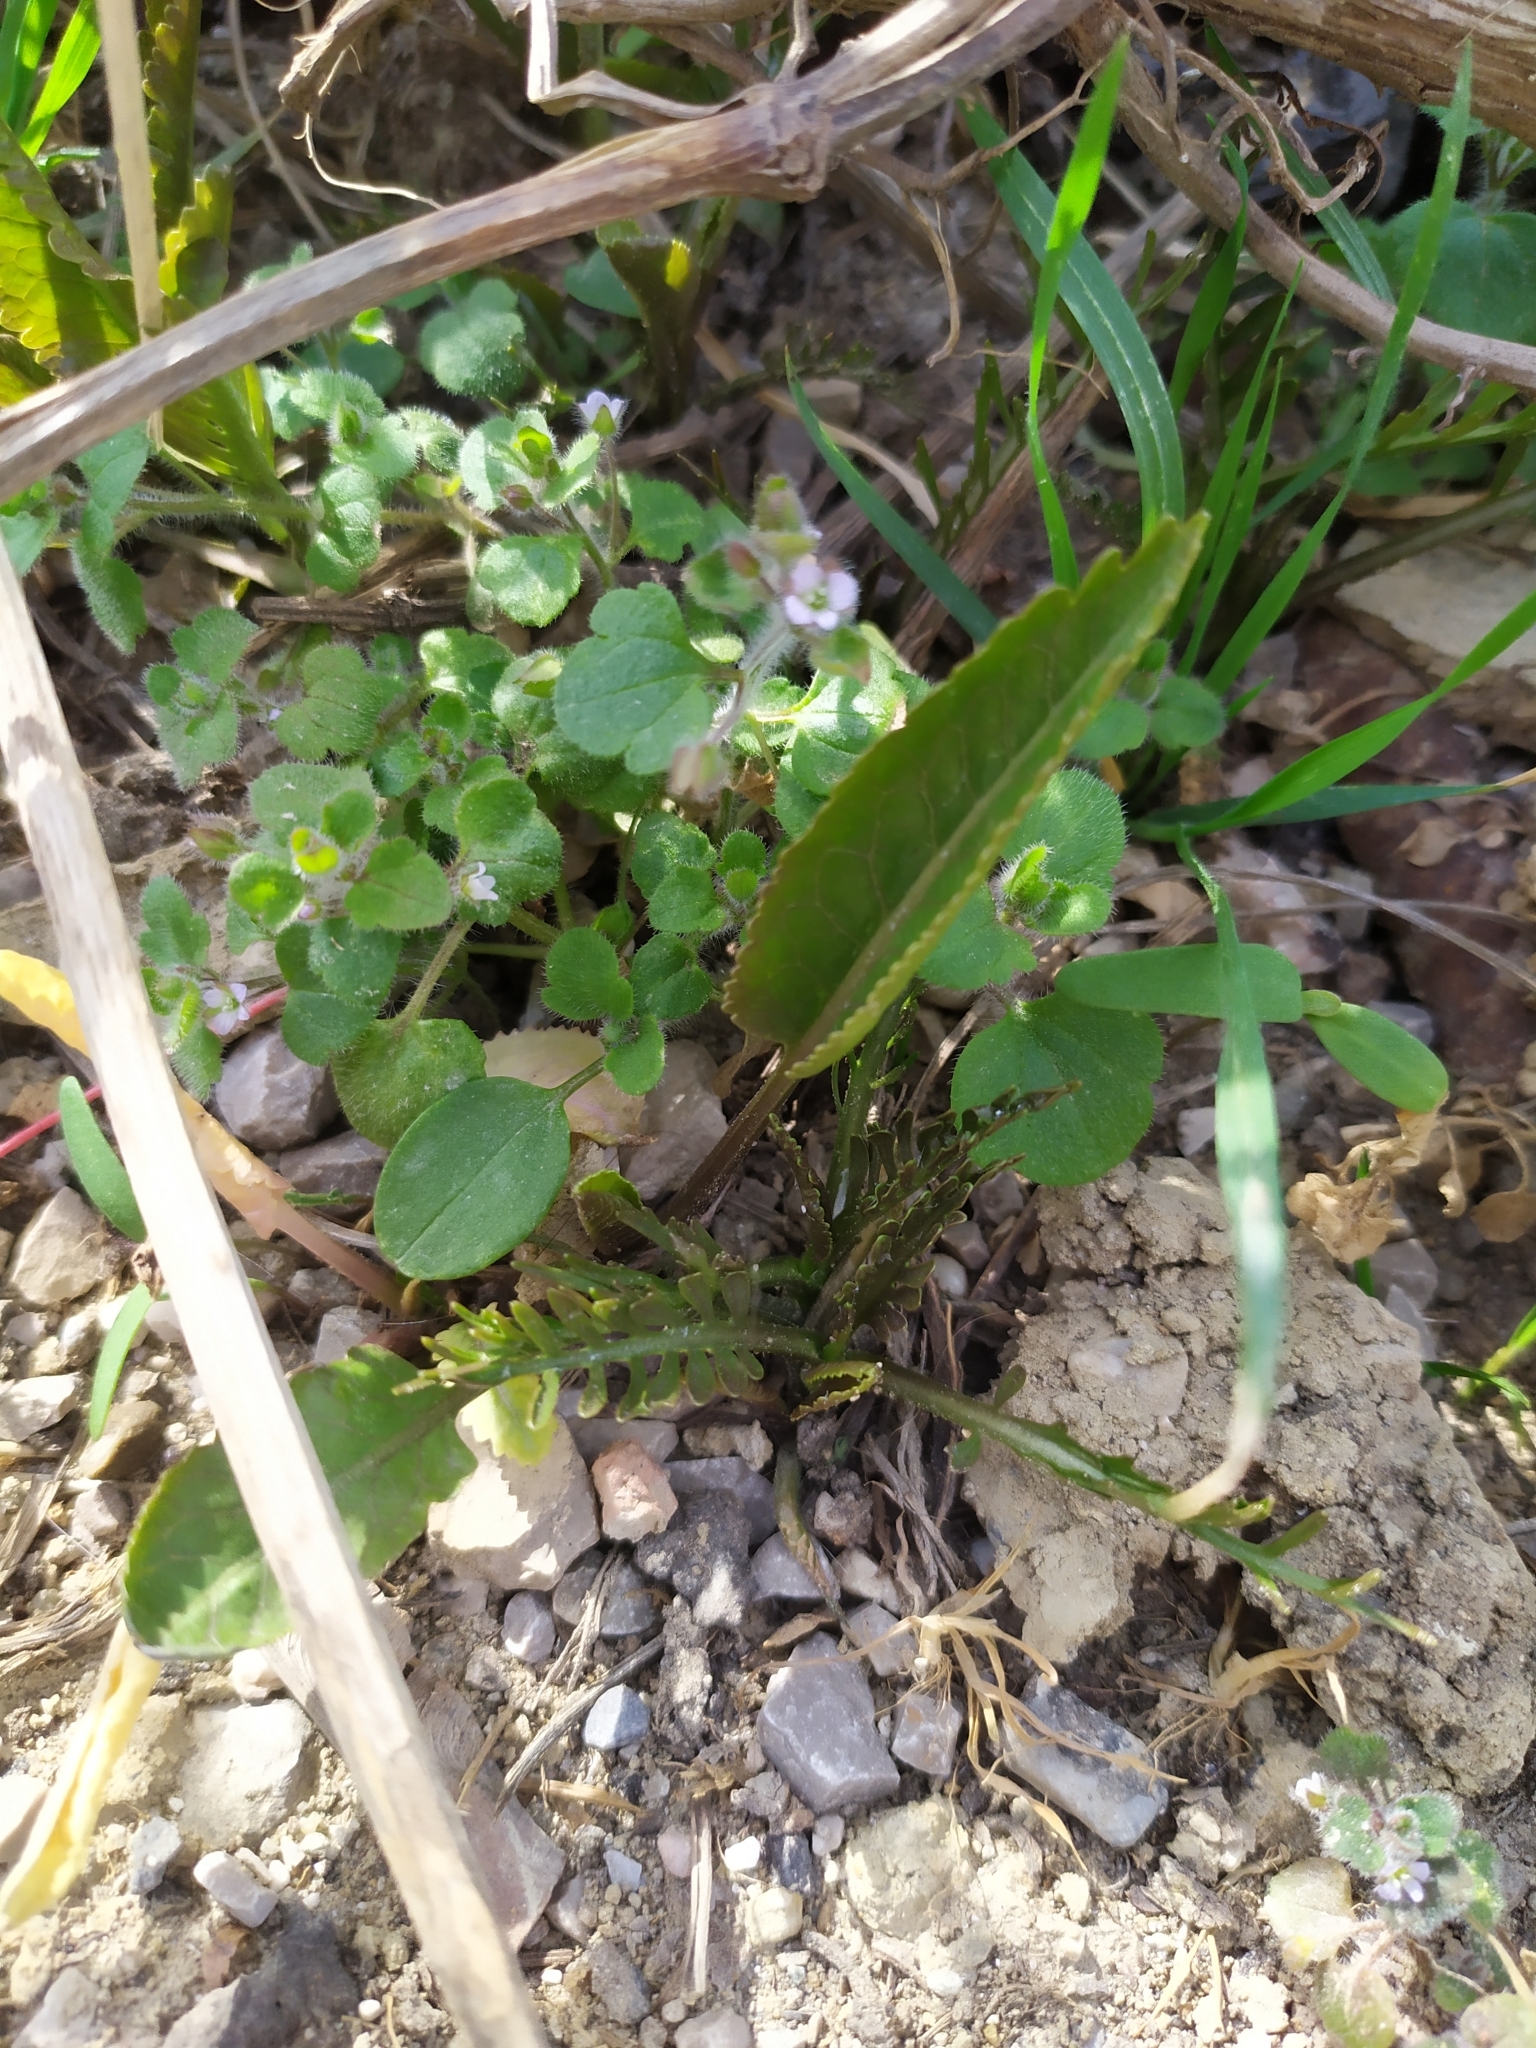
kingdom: Plantae
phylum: Tracheophyta
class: Magnoliopsida
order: Brassicales
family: Brassicaceae
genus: Armoracia
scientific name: Armoracia rusticana
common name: Horseradish
